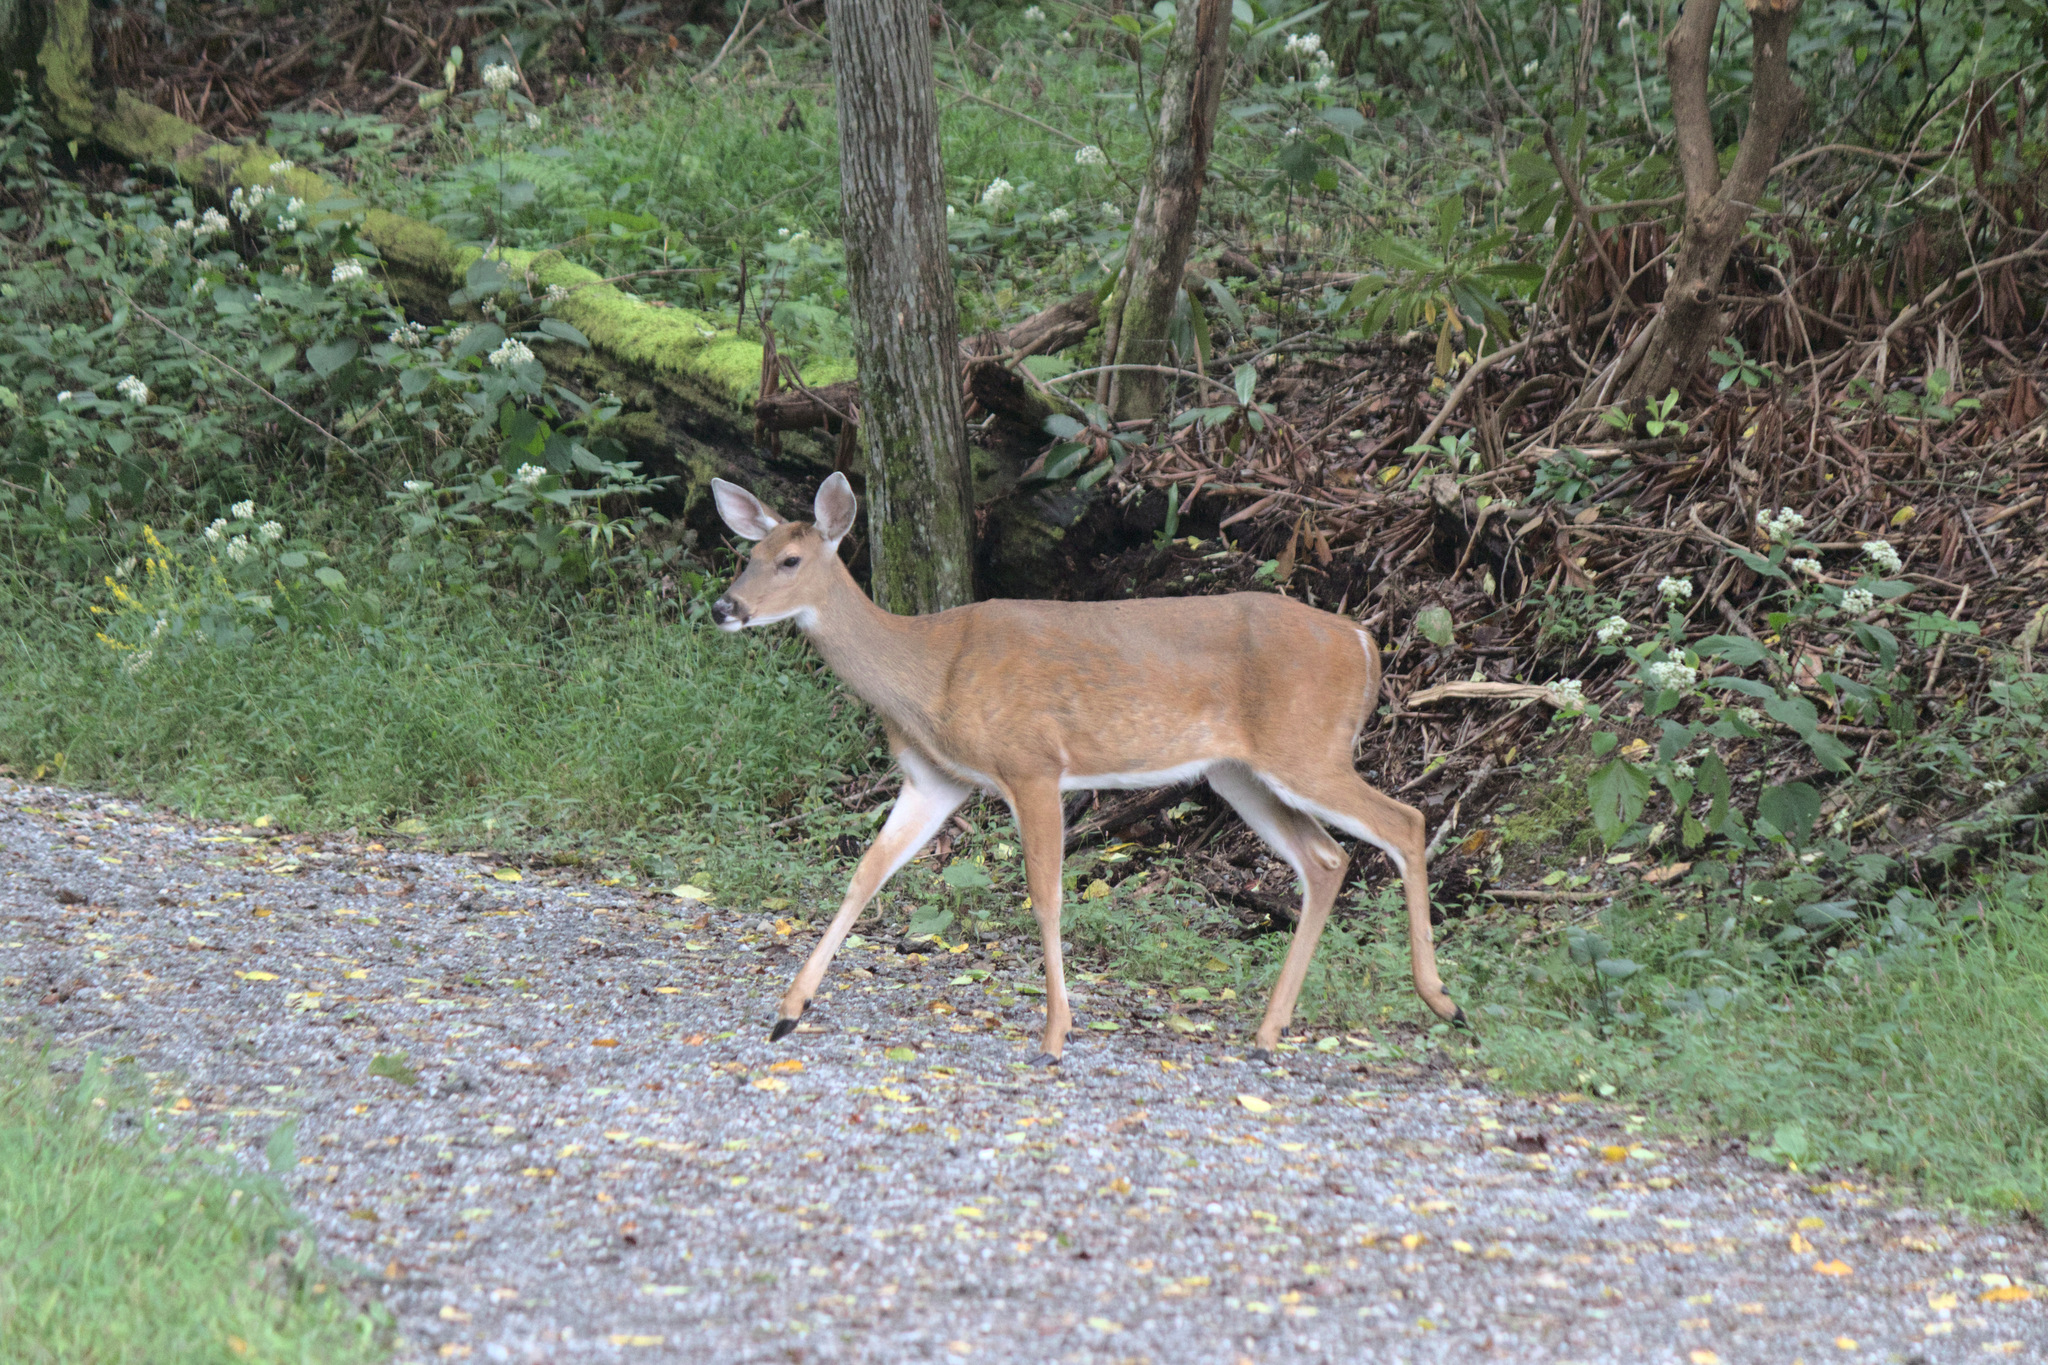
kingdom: Animalia
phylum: Chordata
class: Mammalia
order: Artiodactyla
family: Cervidae
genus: Odocoileus
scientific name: Odocoileus virginianus
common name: White-tailed deer
